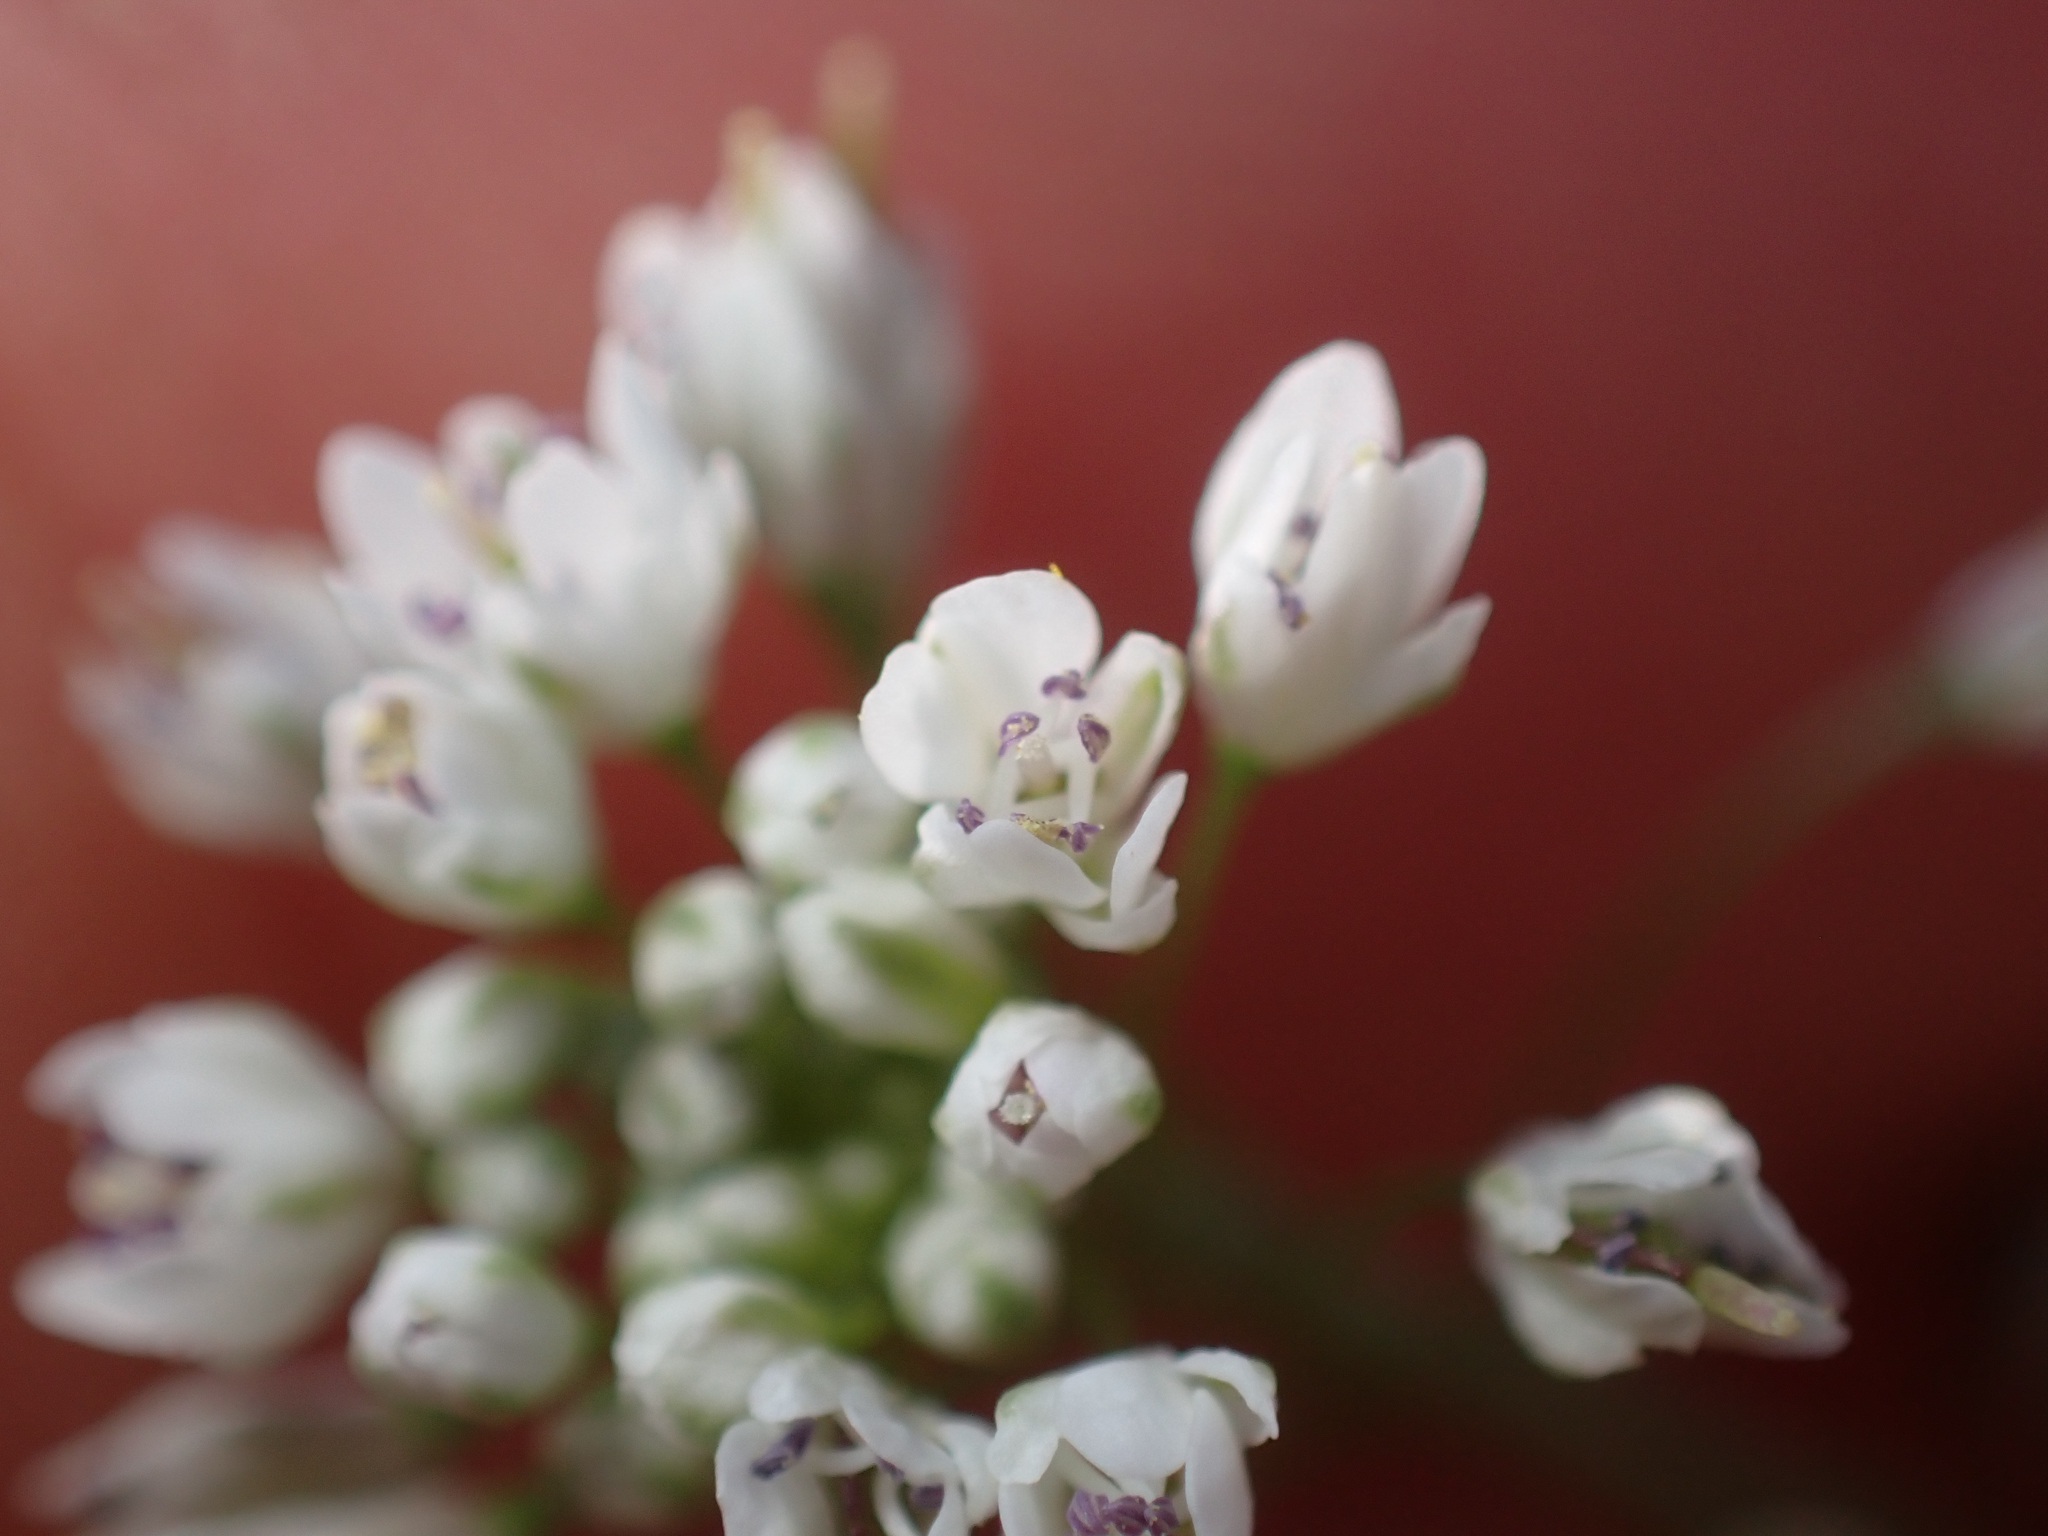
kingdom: Plantae
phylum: Tracheophyta
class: Magnoliopsida
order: Brassicales
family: Brassicaceae
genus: Thysanocarpus
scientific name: Thysanocarpus laciniatus
